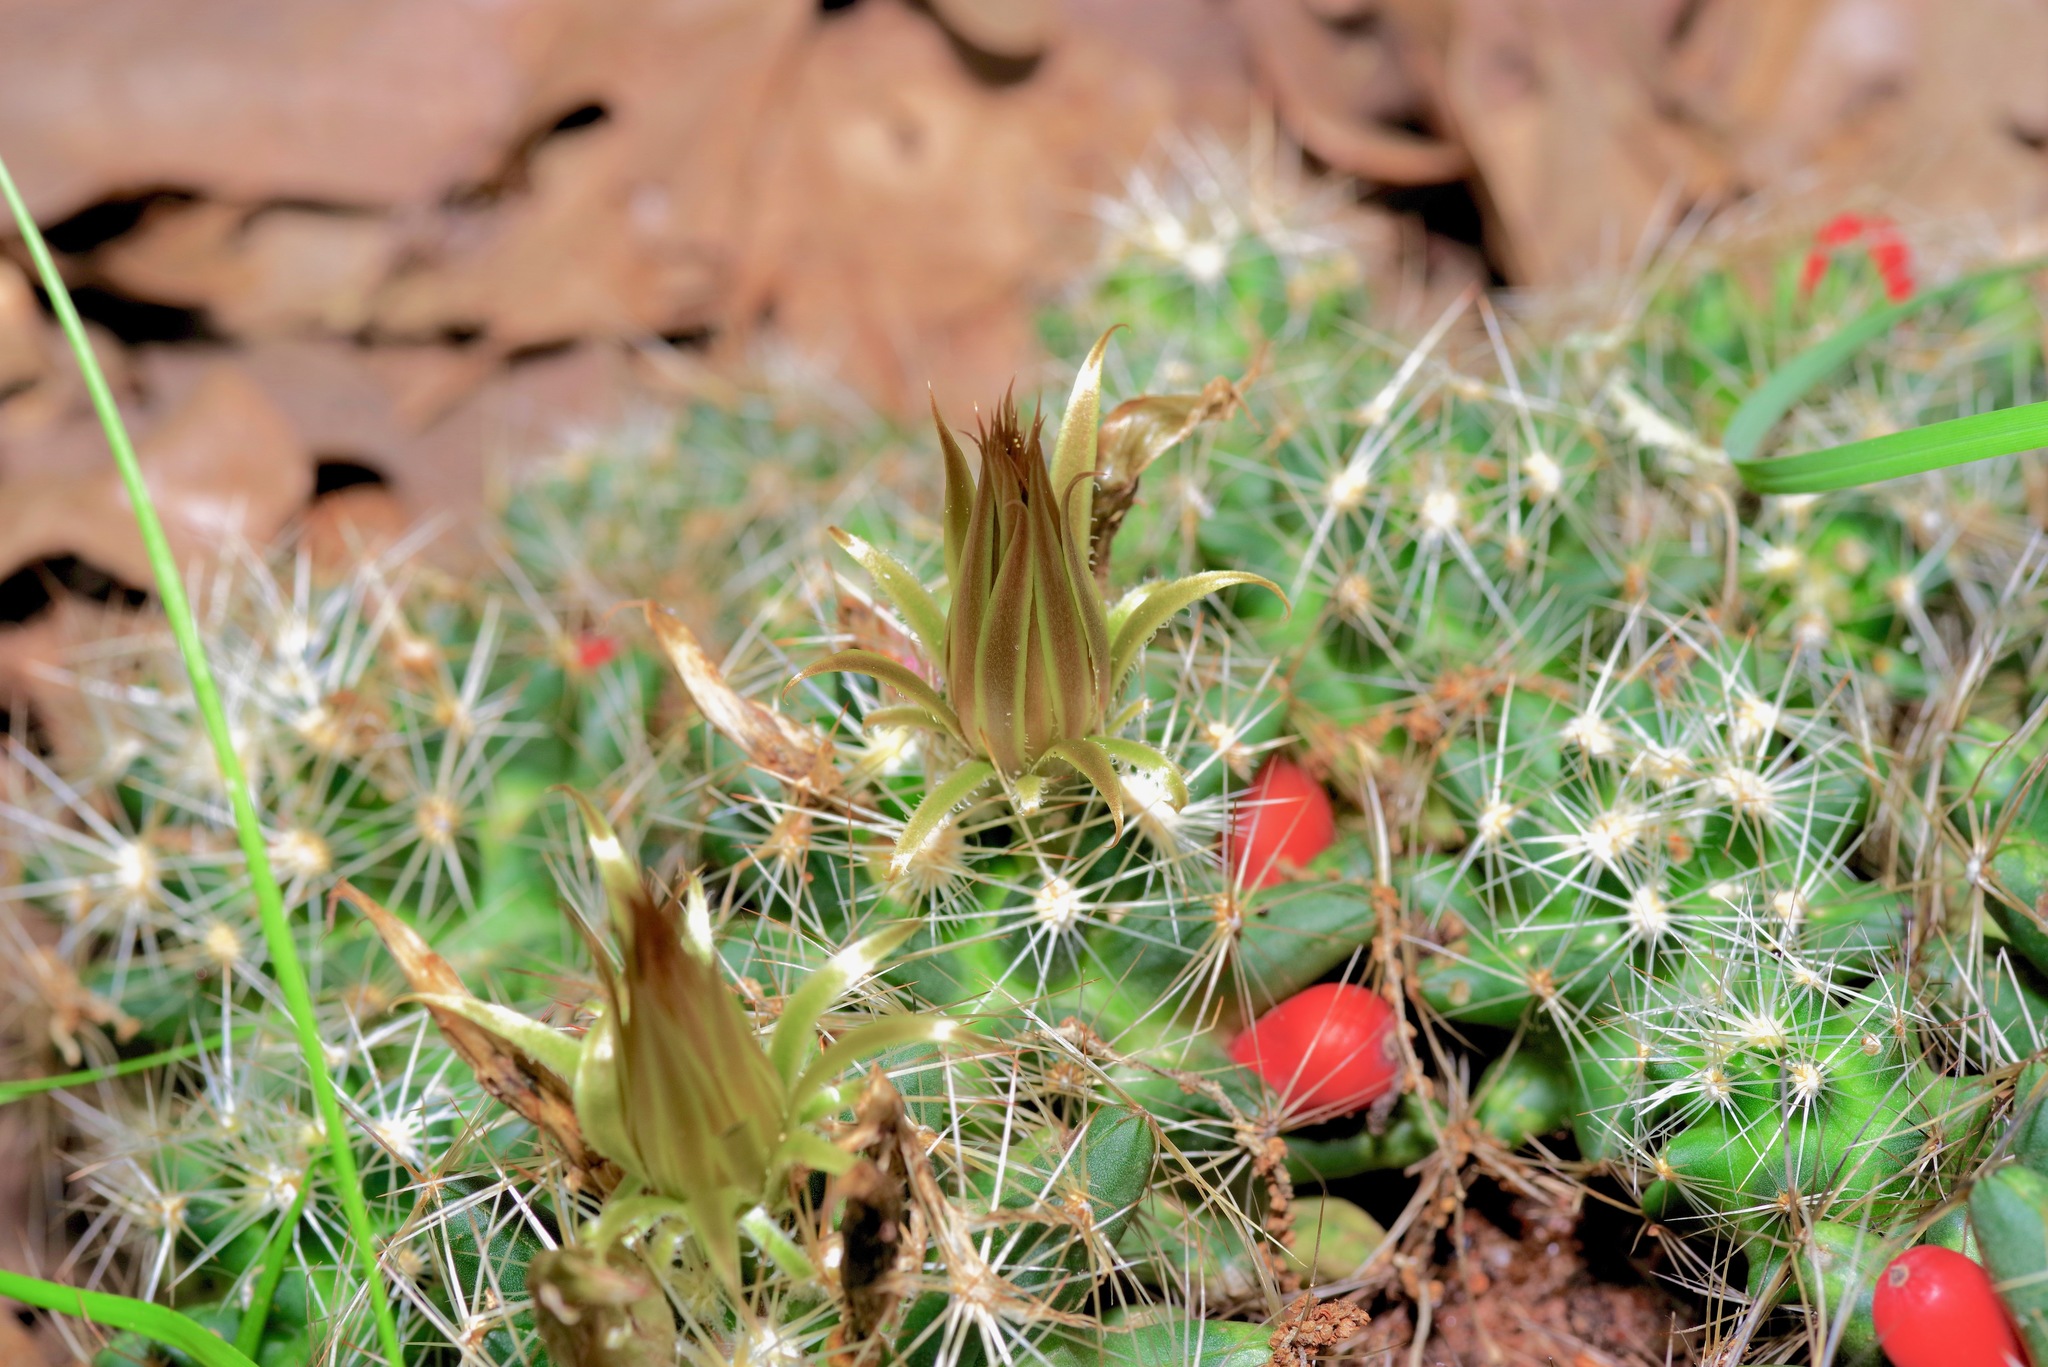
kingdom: Plantae
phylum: Tracheophyta
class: Magnoliopsida
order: Caryophyllales
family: Cactaceae
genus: Pelecyphora
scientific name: Pelecyphora missouriensis
